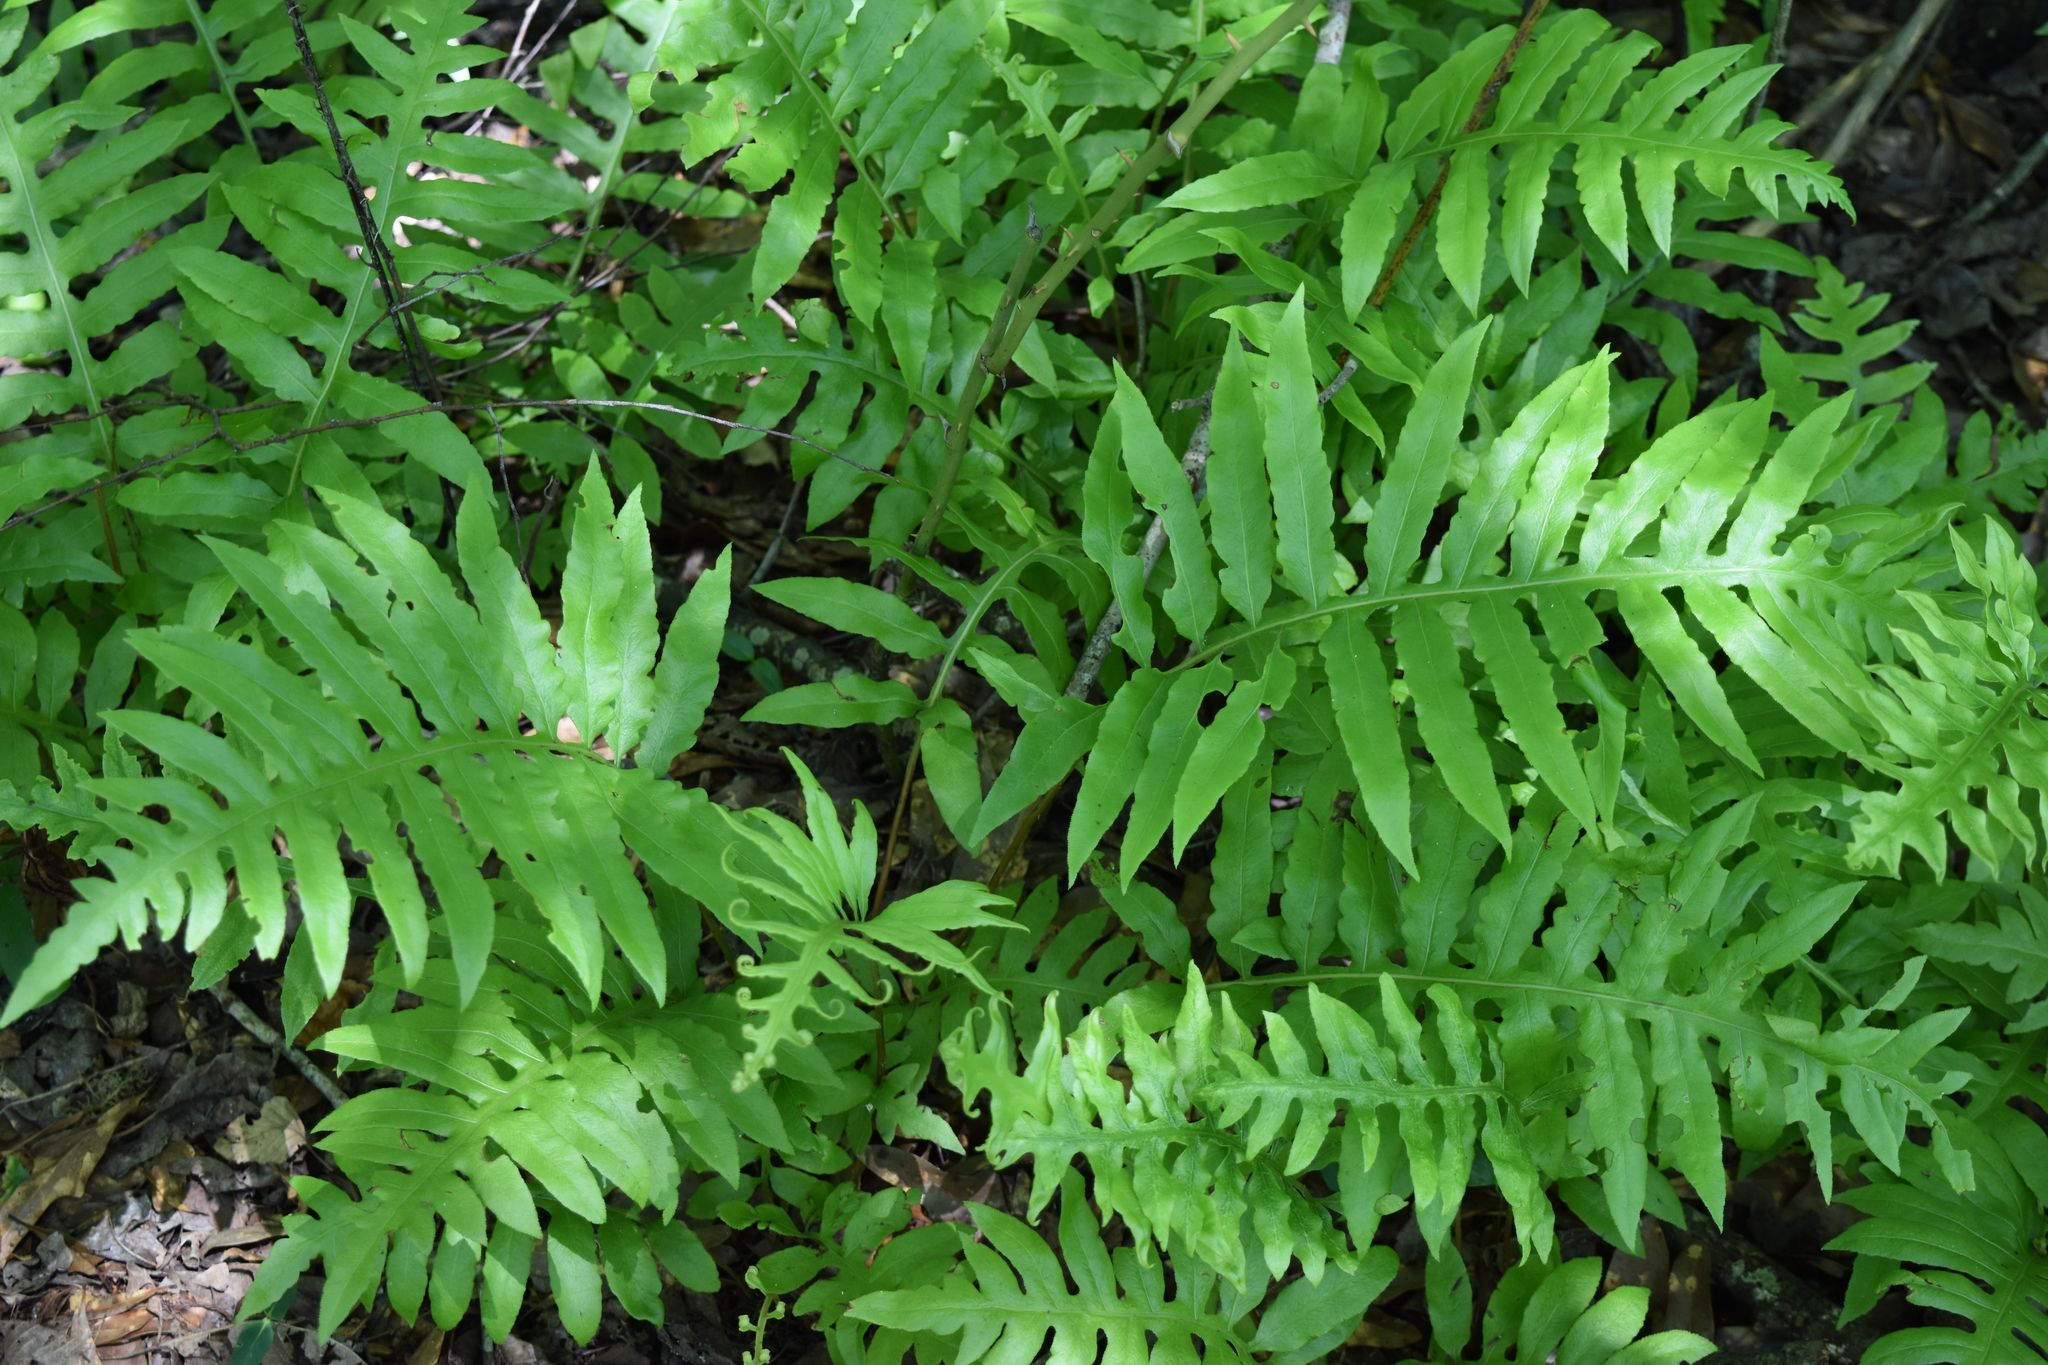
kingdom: Plantae
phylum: Tracheophyta
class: Polypodiopsida
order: Polypodiales
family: Blechnaceae
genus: Lorinseria
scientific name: Lorinseria areolata
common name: Dwarf chain fern
